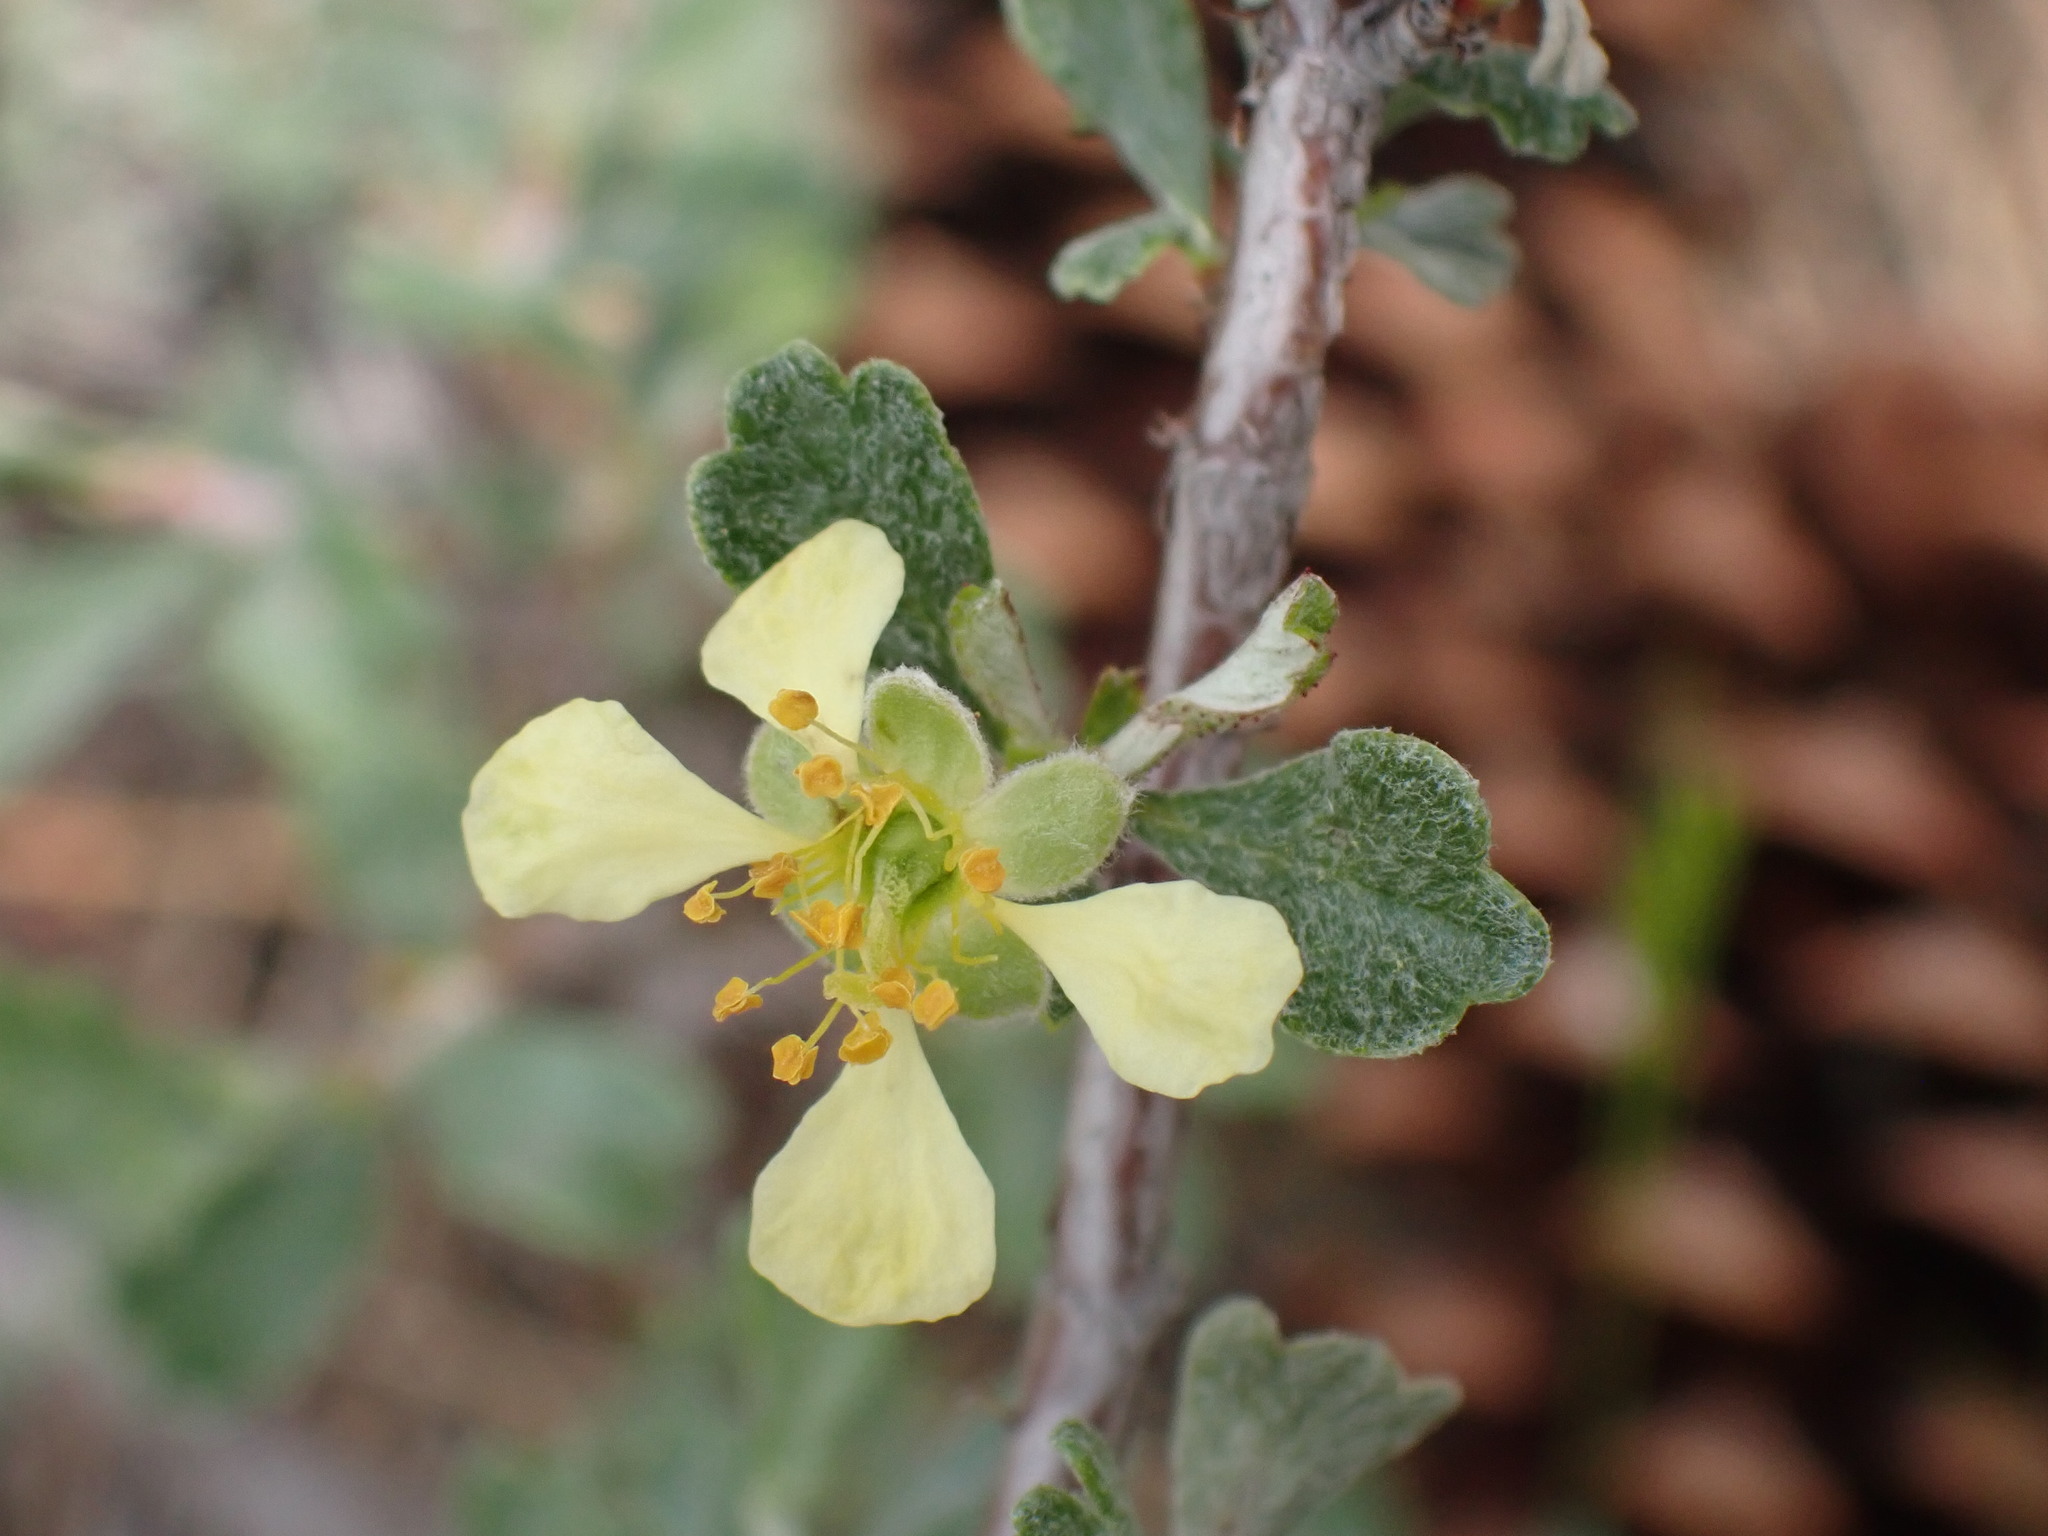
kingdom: Plantae
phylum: Tracheophyta
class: Magnoliopsida
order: Rosales
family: Rosaceae
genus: Purshia
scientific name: Purshia tridentata
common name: Antelope bitterbrush
